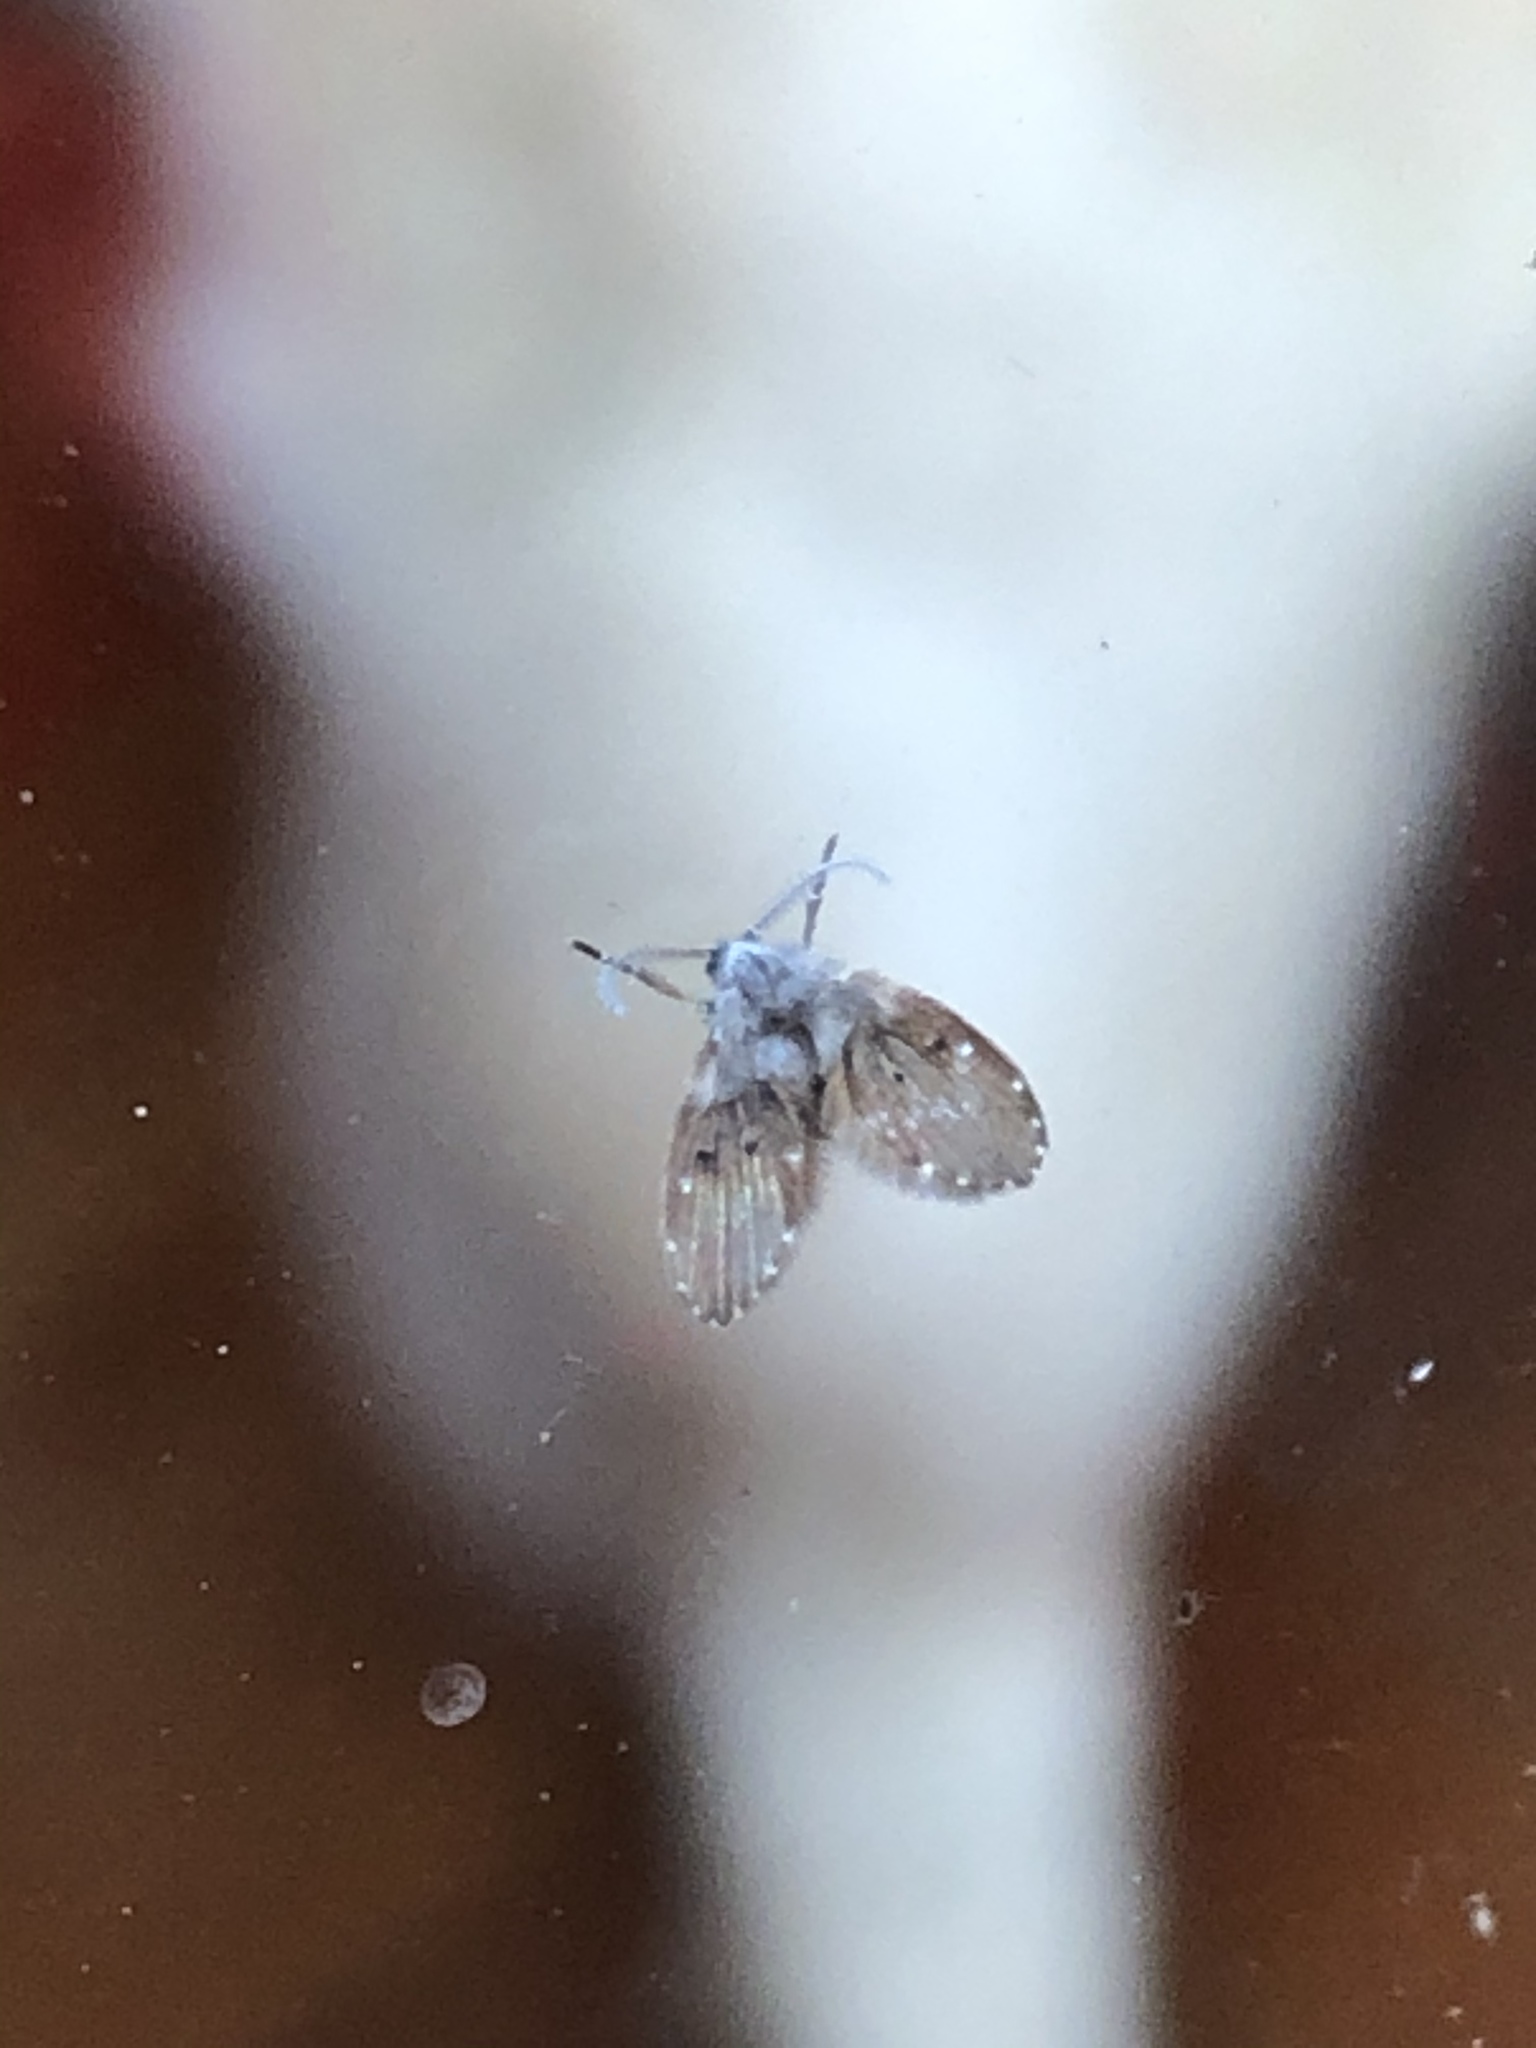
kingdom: Animalia
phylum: Arthropoda
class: Insecta
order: Diptera
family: Psychodidae
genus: Clogmia
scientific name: Clogmia albipunctatus
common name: White-spotted moth fly
